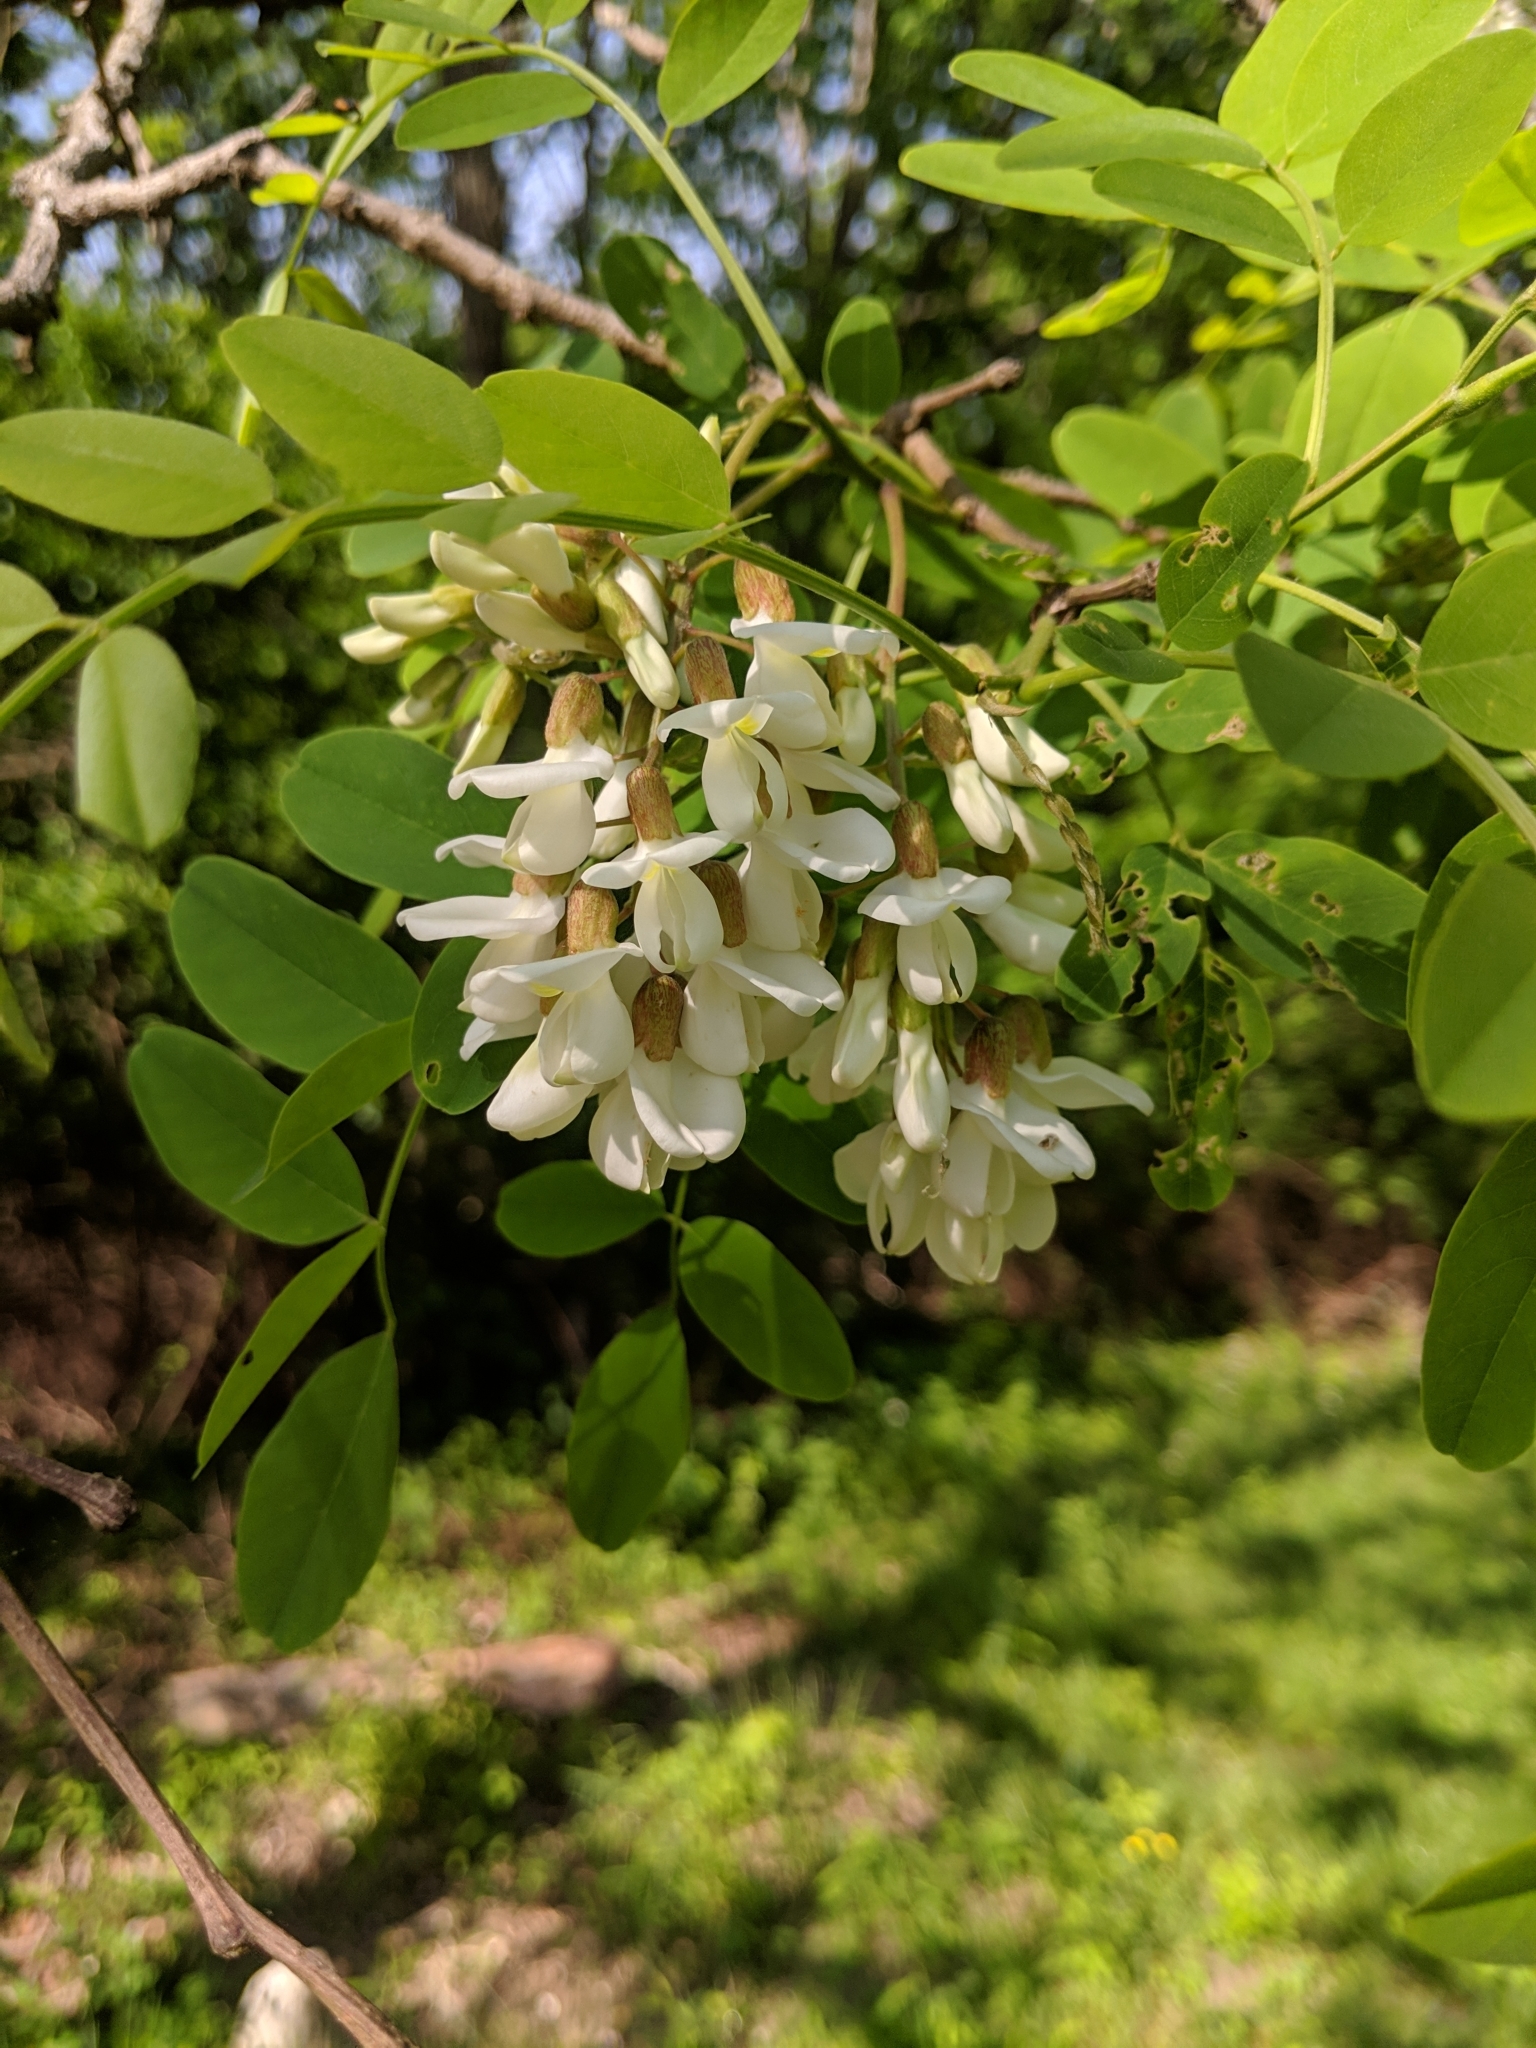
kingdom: Plantae
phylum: Tracheophyta
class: Magnoliopsida
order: Fabales
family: Fabaceae
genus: Robinia
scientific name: Robinia pseudoacacia
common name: Black locust
